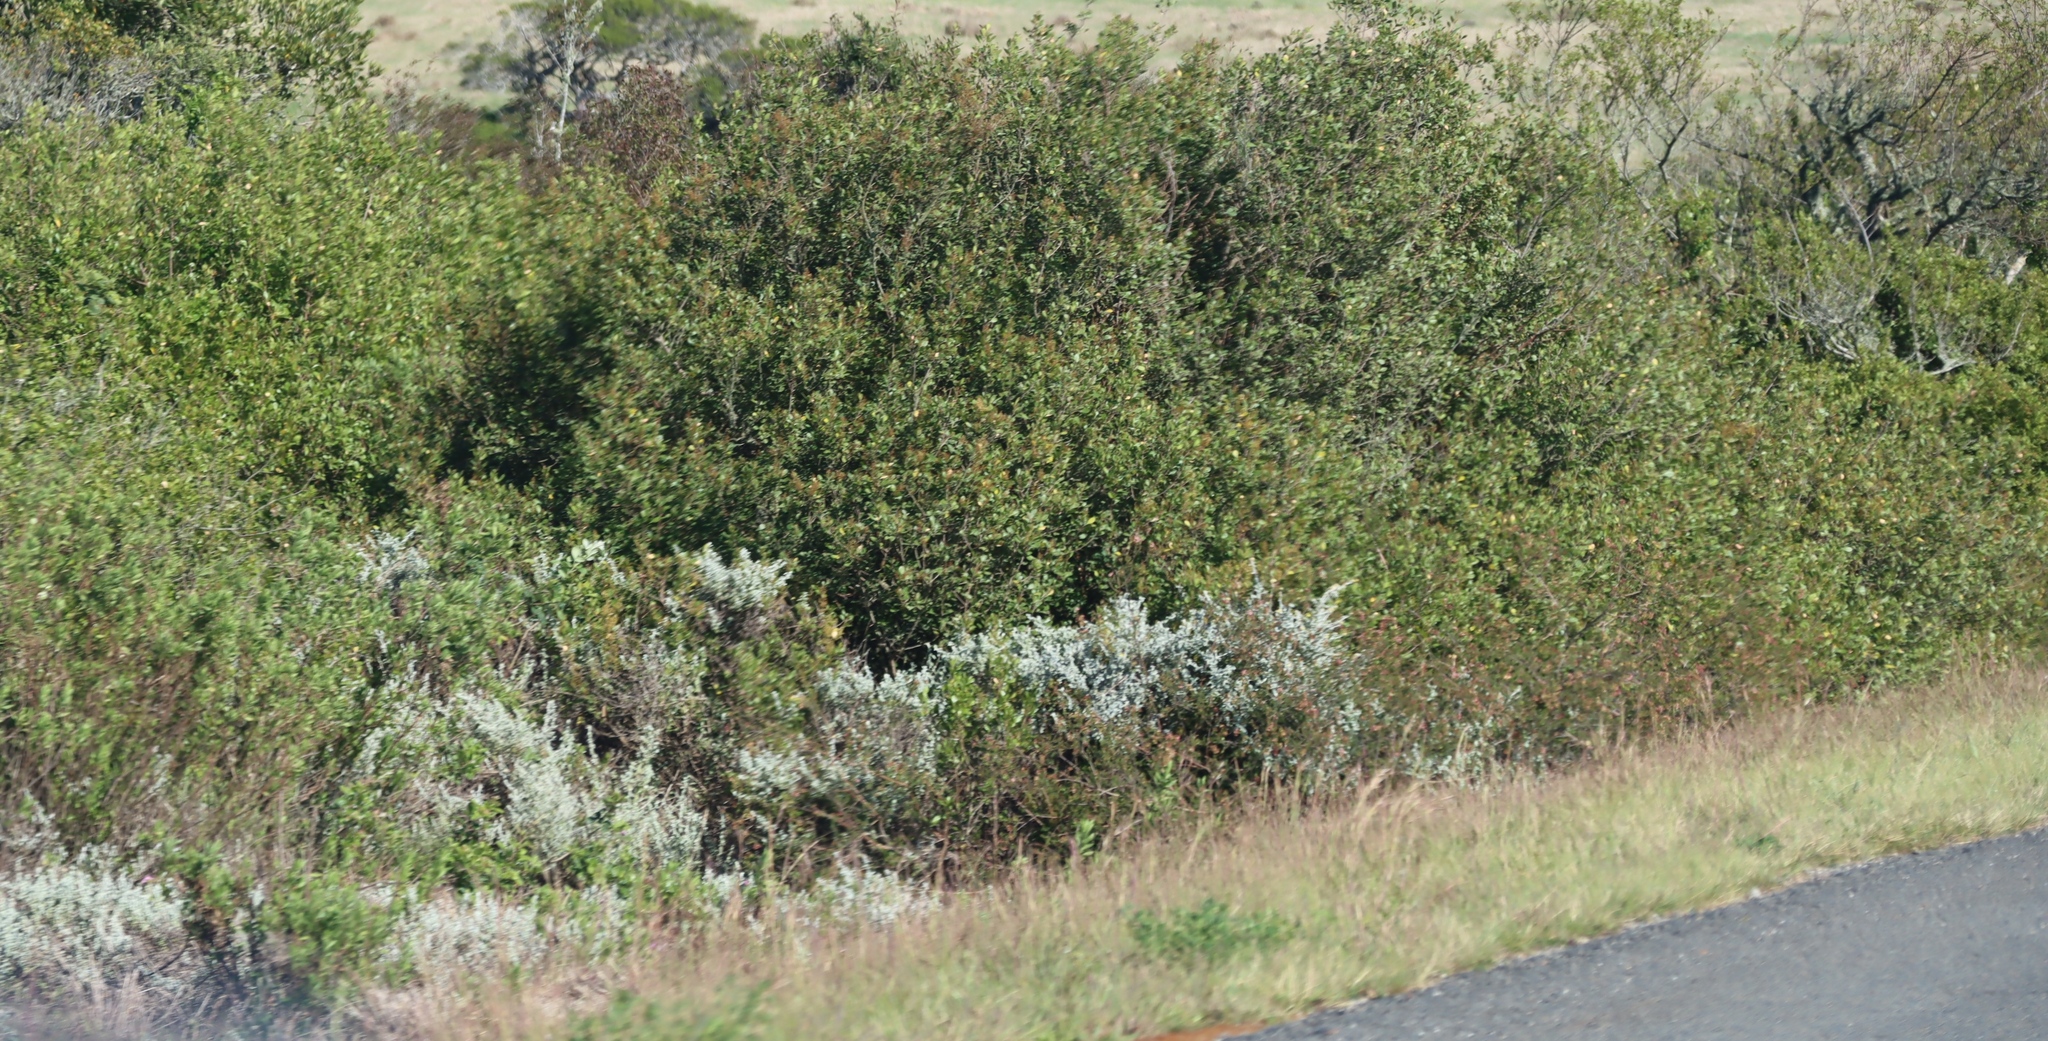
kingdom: Plantae
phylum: Tracheophyta
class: Magnoliopsida
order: Asterales
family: Asteraceae
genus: Helichrysum
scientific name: Helichrysum patulum
